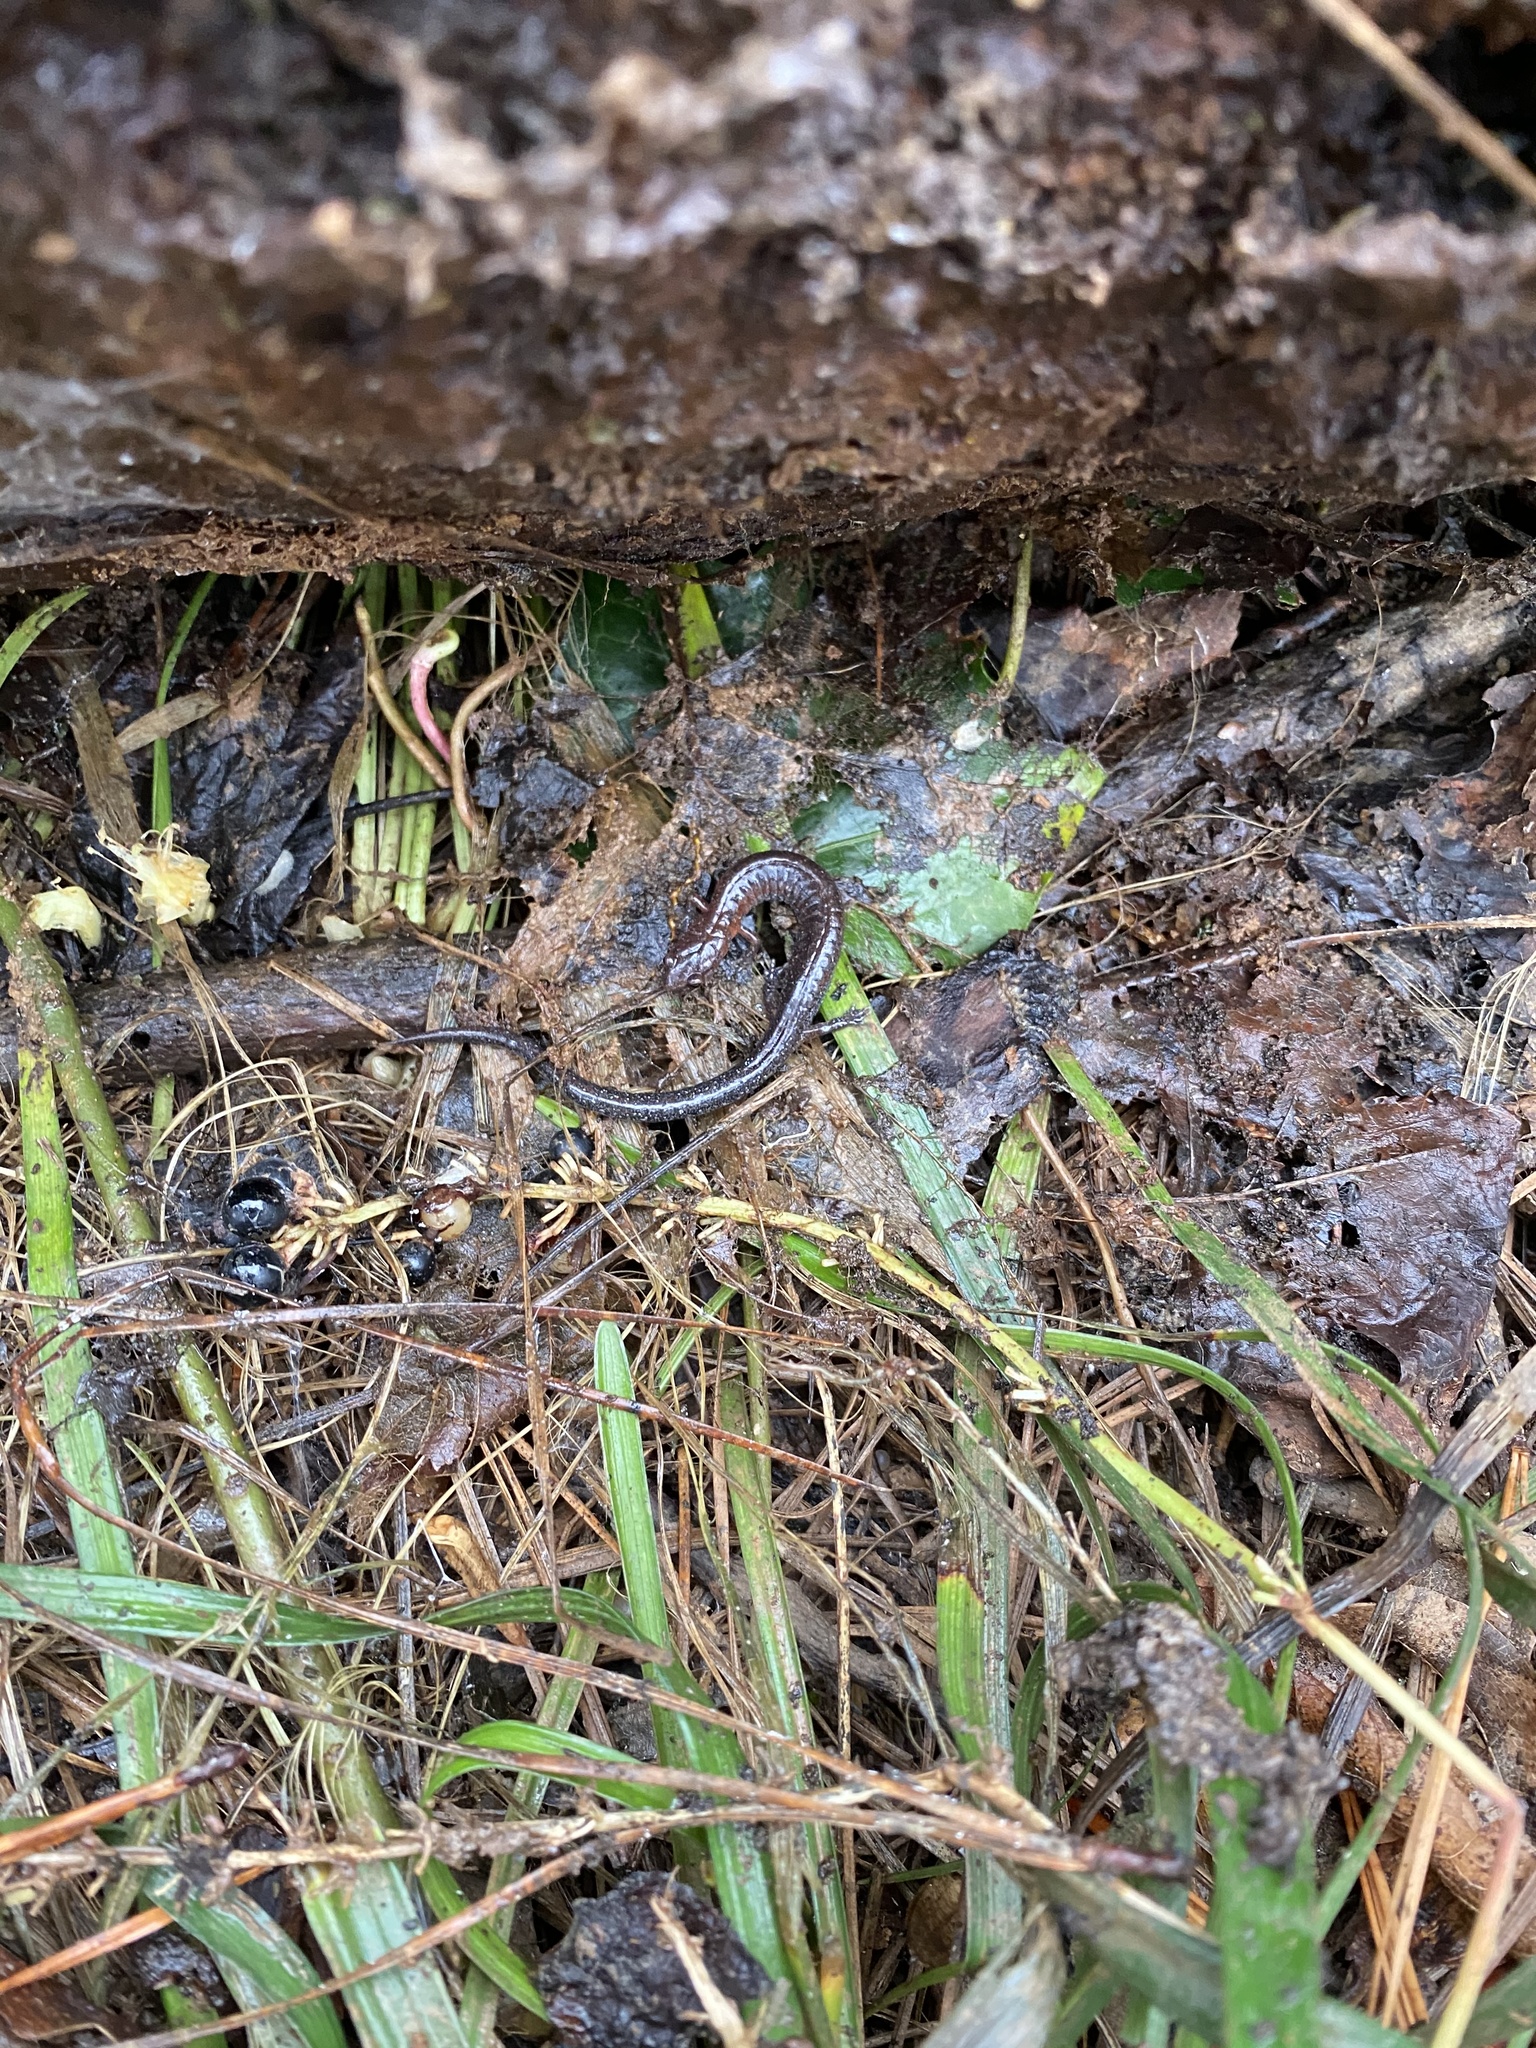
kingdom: Animalia
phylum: Chordata
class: Amphibia
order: Caudata
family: Plethodontidae
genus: Plethodon
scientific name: Plethodon serratus
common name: Southern red-backed salamander
